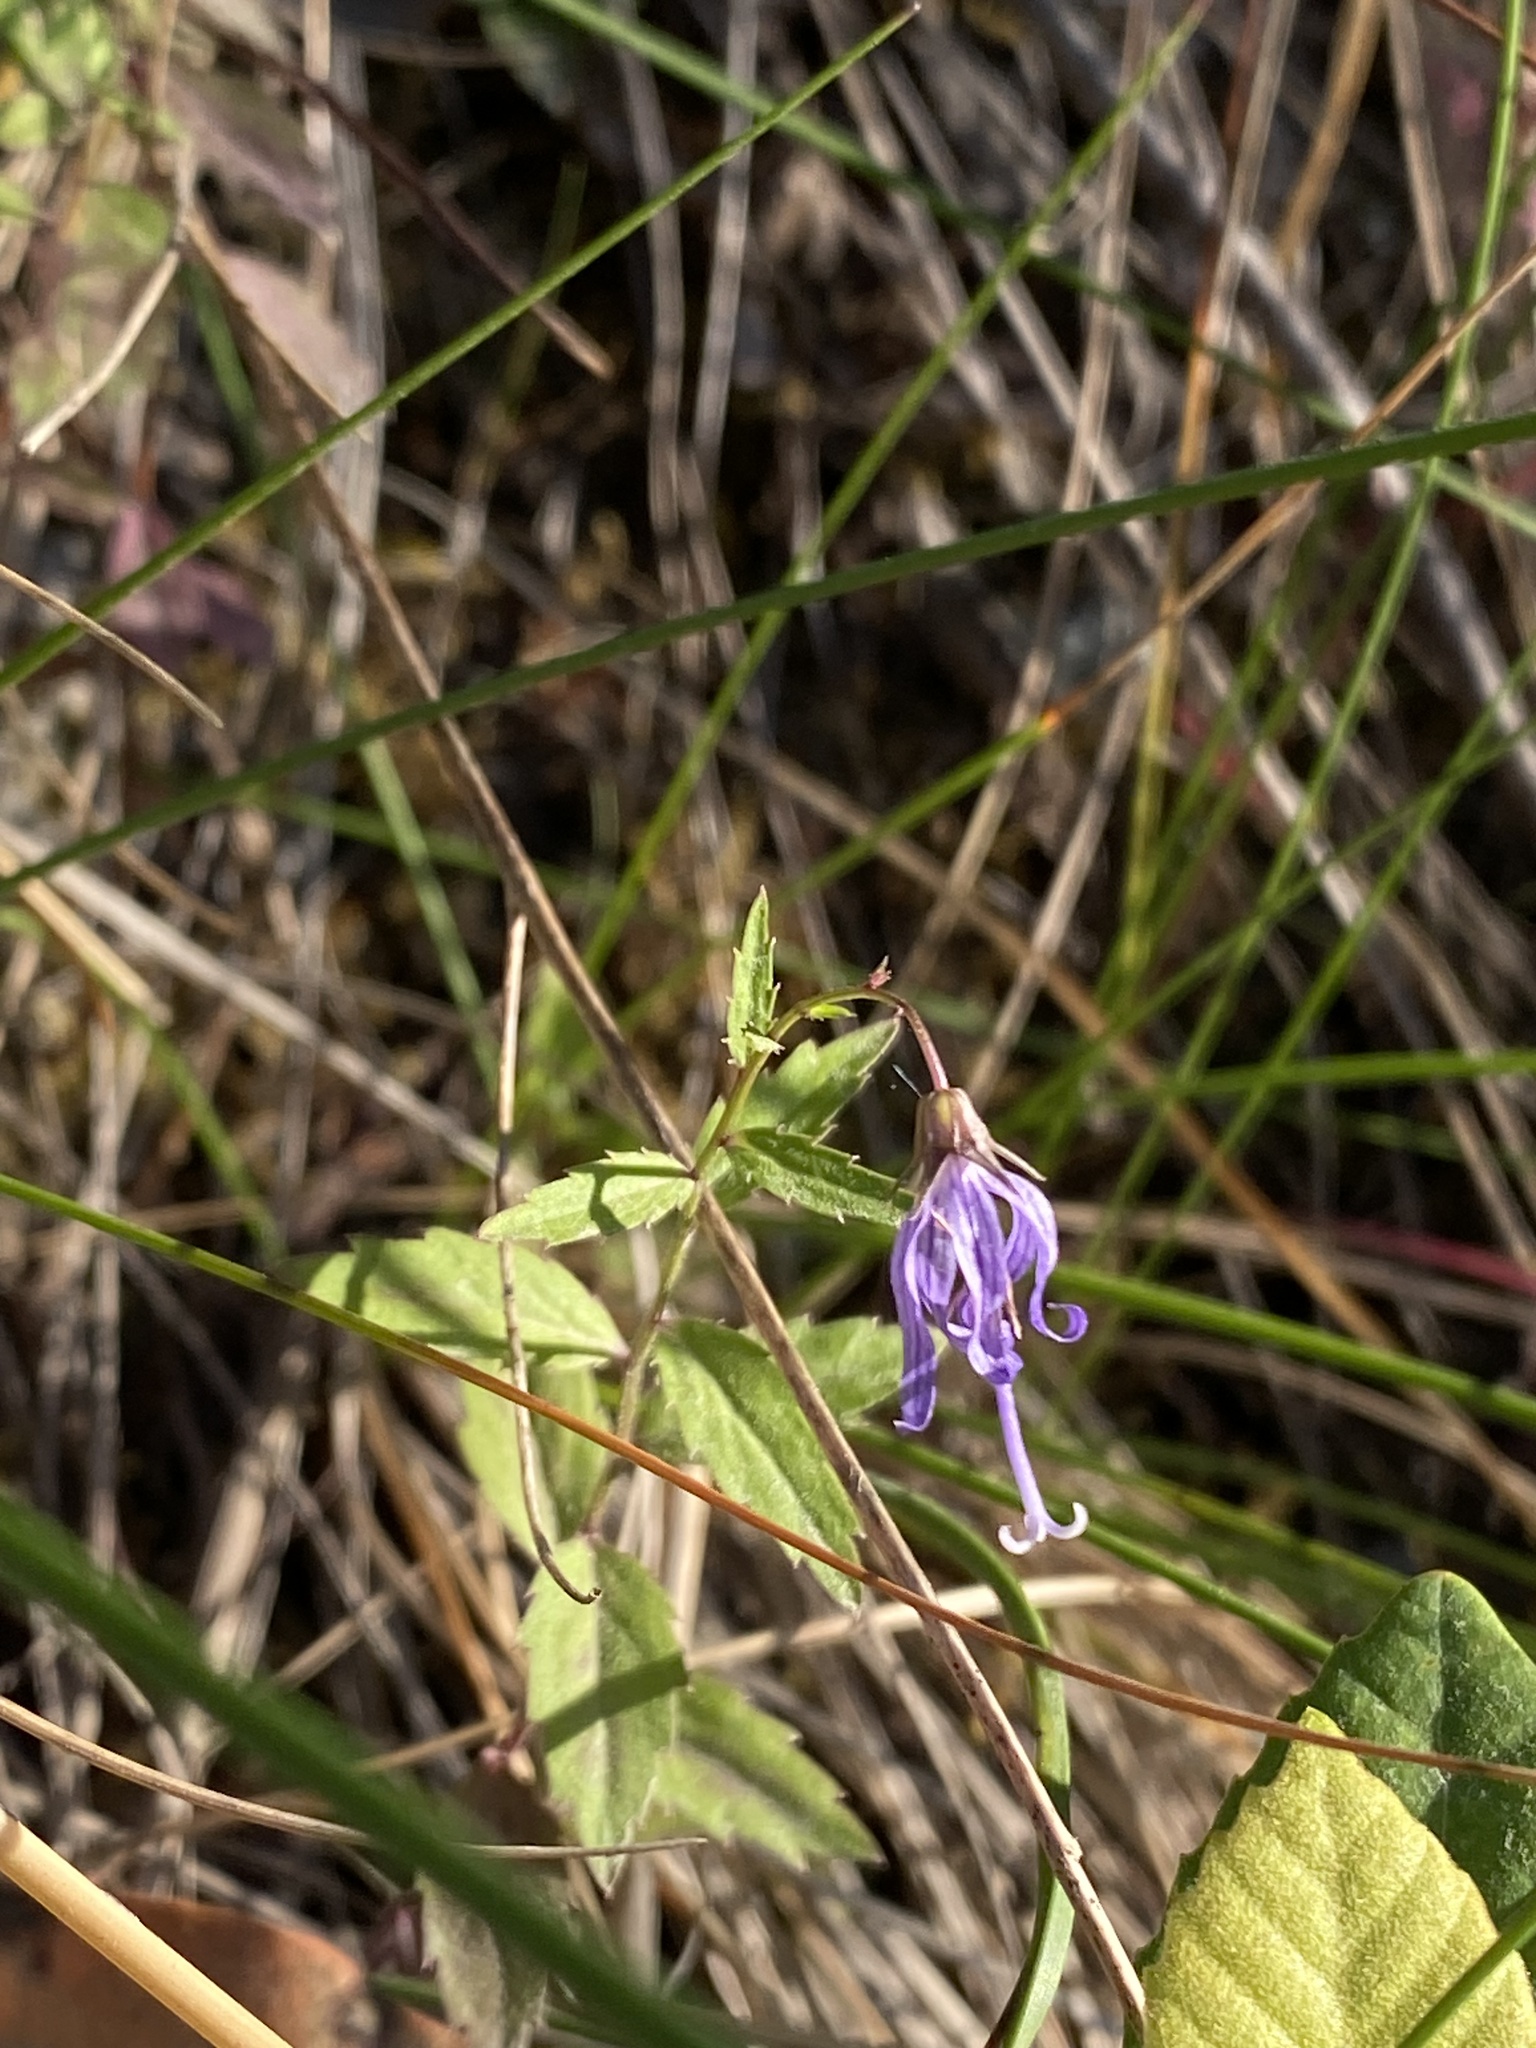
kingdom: Plantae
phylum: Tracheophyta
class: Magnoliopsida
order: Asterales
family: Campanulaceae
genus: Smithiastrum
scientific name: Smithiastrum prenanthoides
